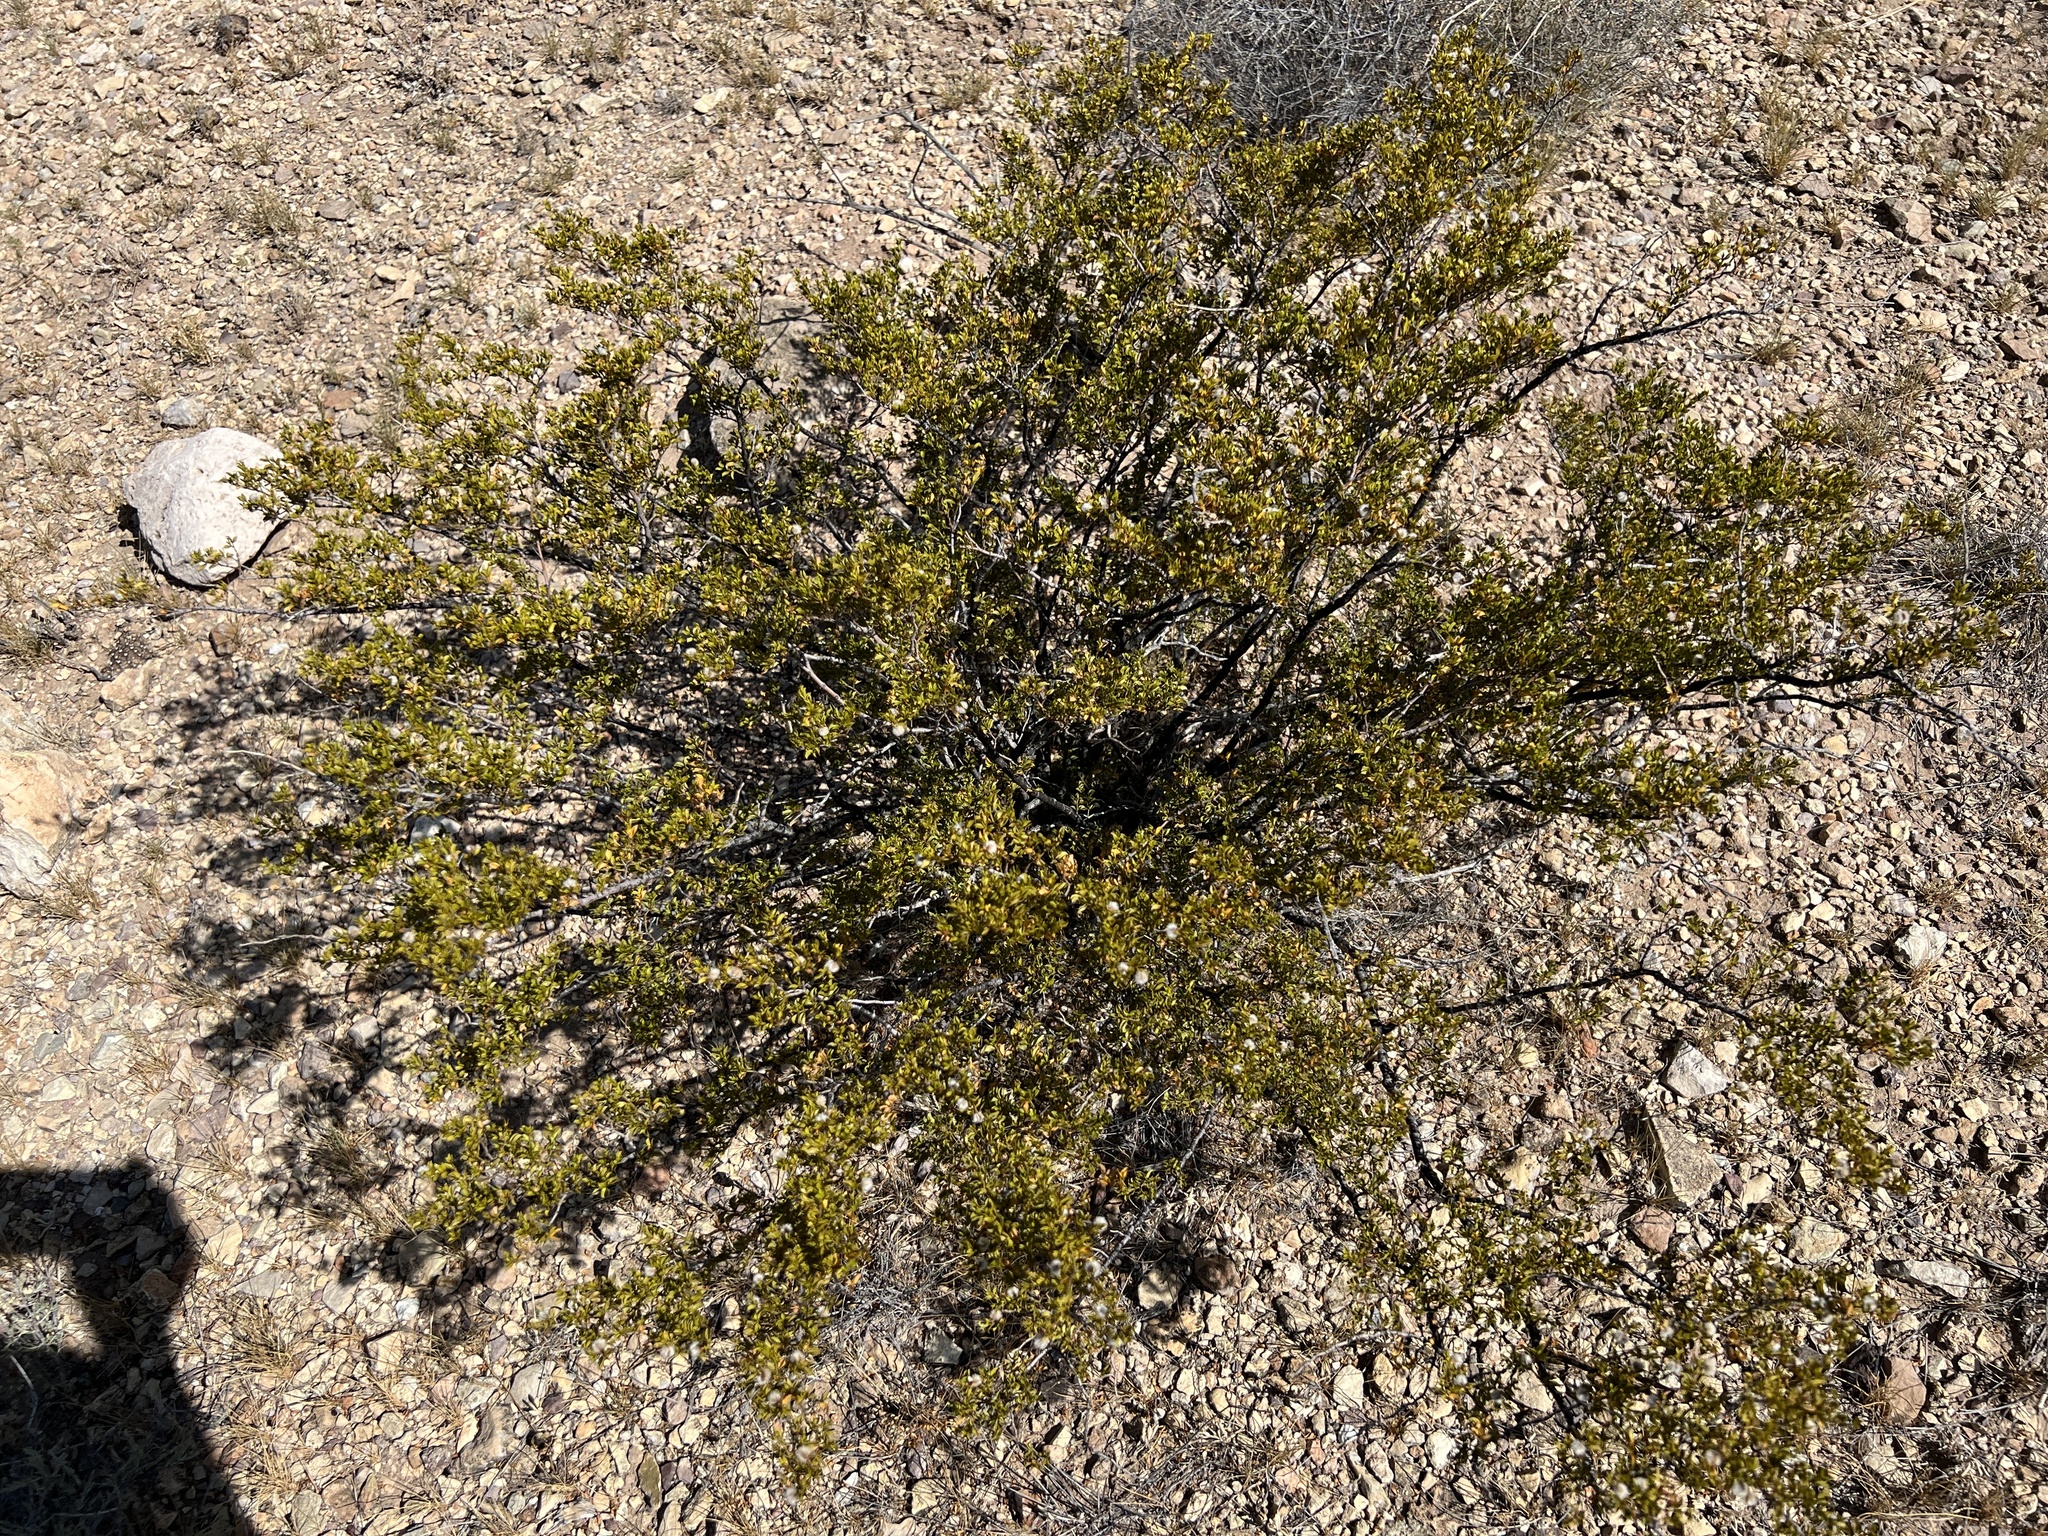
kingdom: Plantae
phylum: Tracheophyta
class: Magnoliopsida
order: Zygophyllales
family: Zygophyllaceae
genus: Larrea
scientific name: Larrea tridentata
